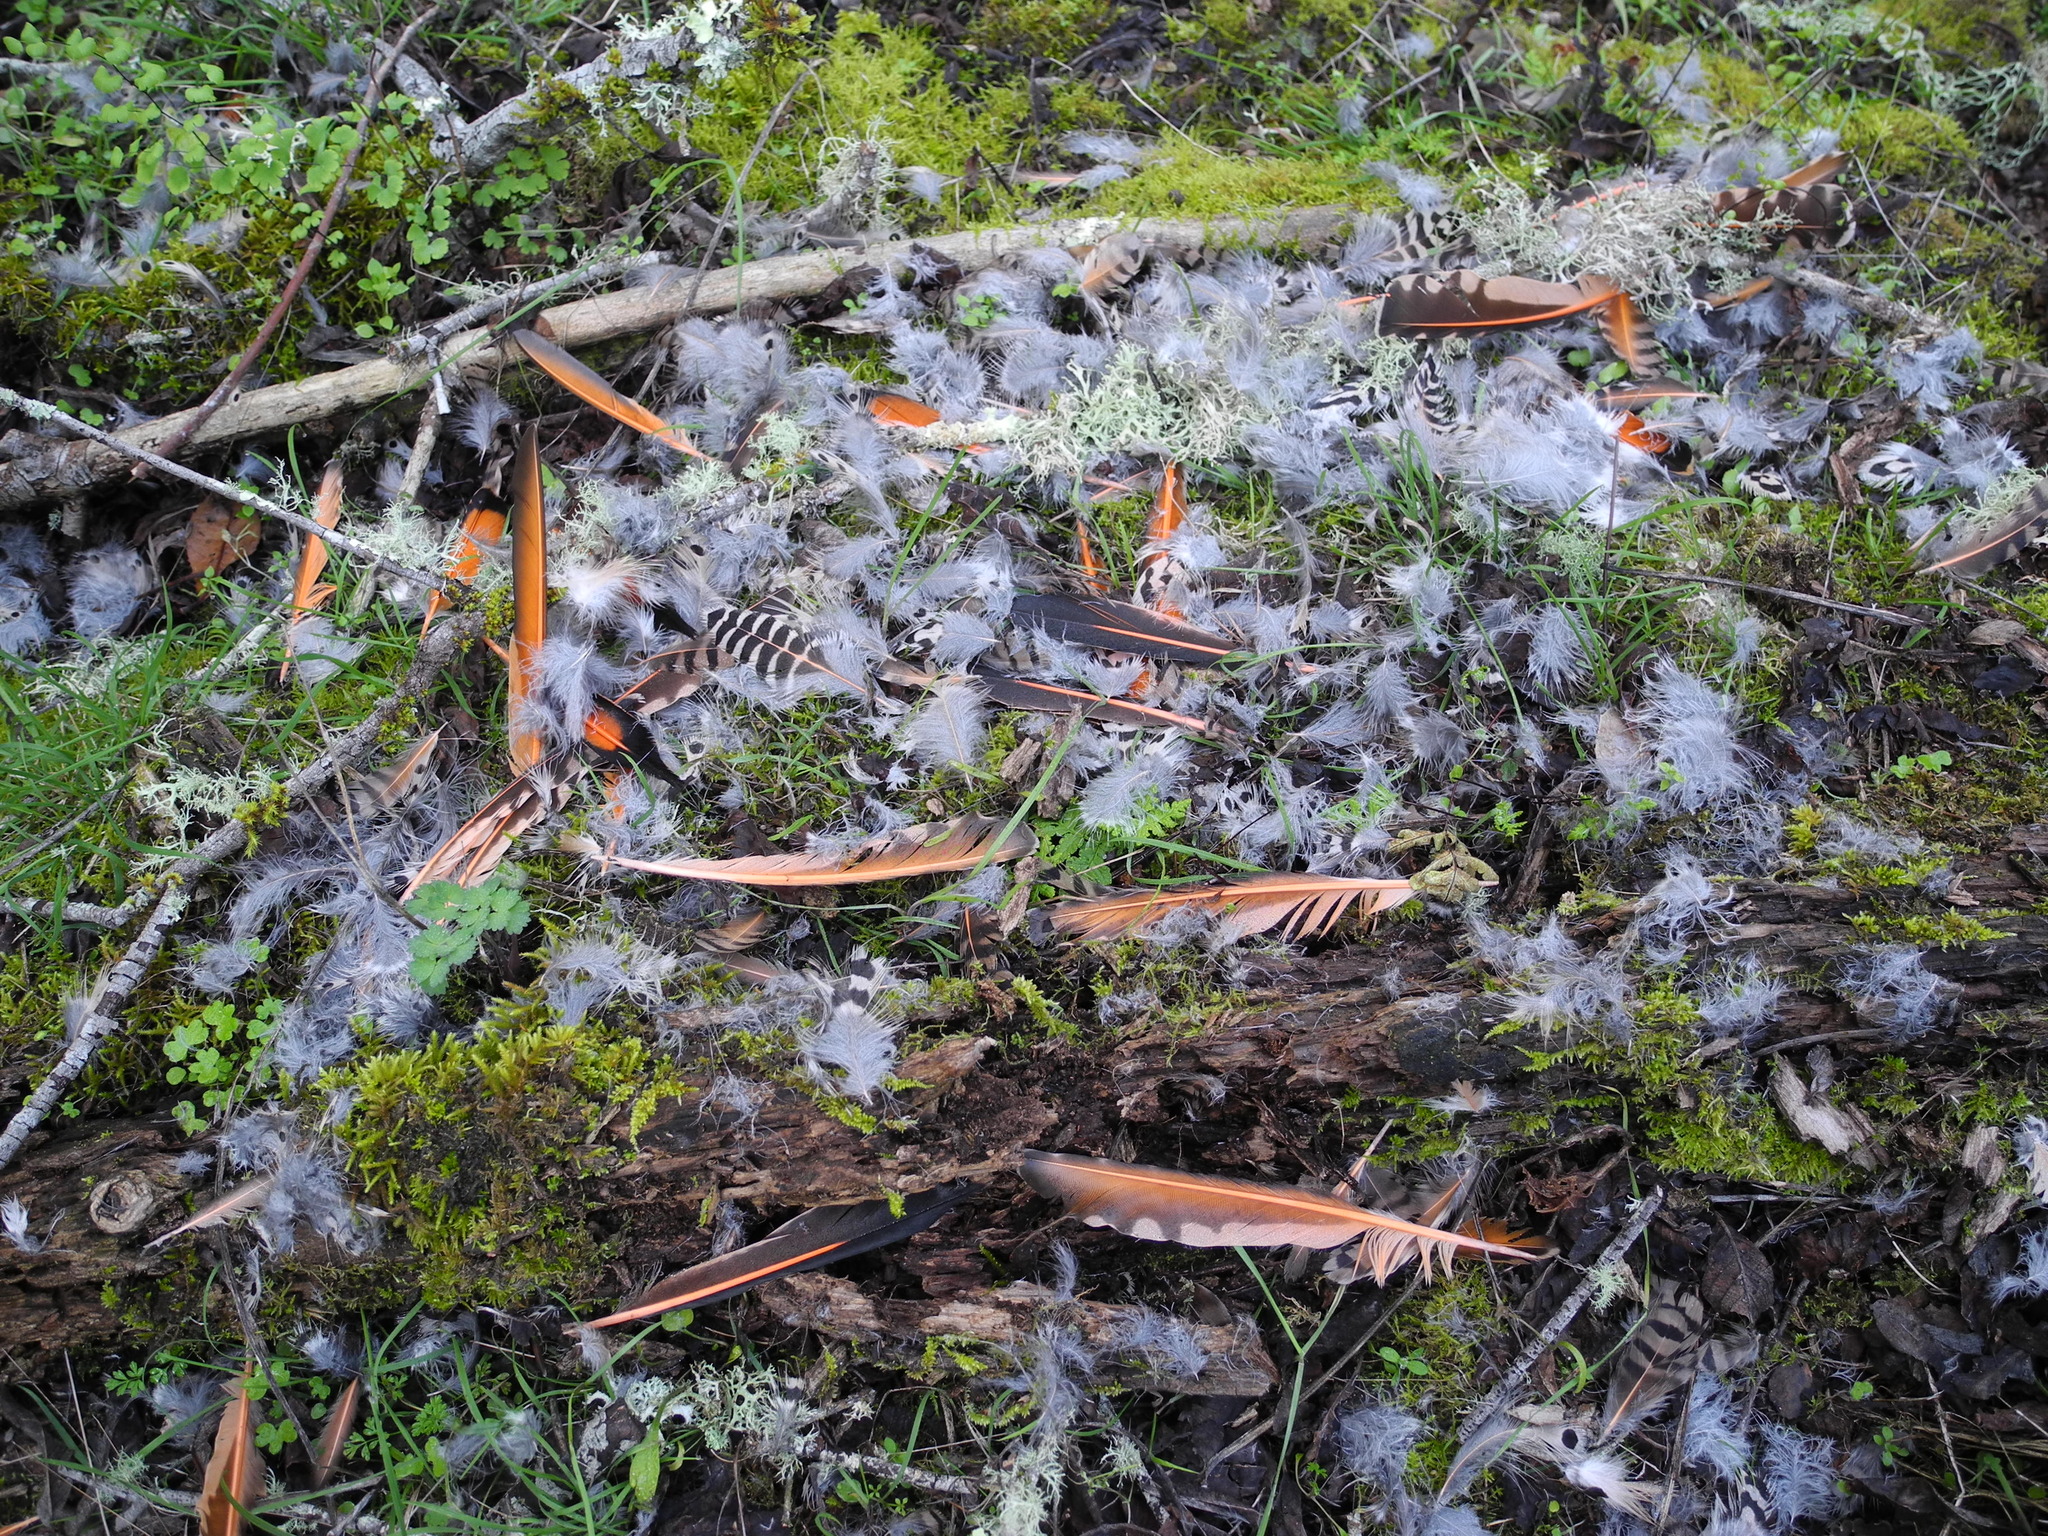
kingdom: Animalia
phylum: Chordata
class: Aves
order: Piciformes
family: Picidae
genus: Colaptes
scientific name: Colaptes auratus
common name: Northern flicker
